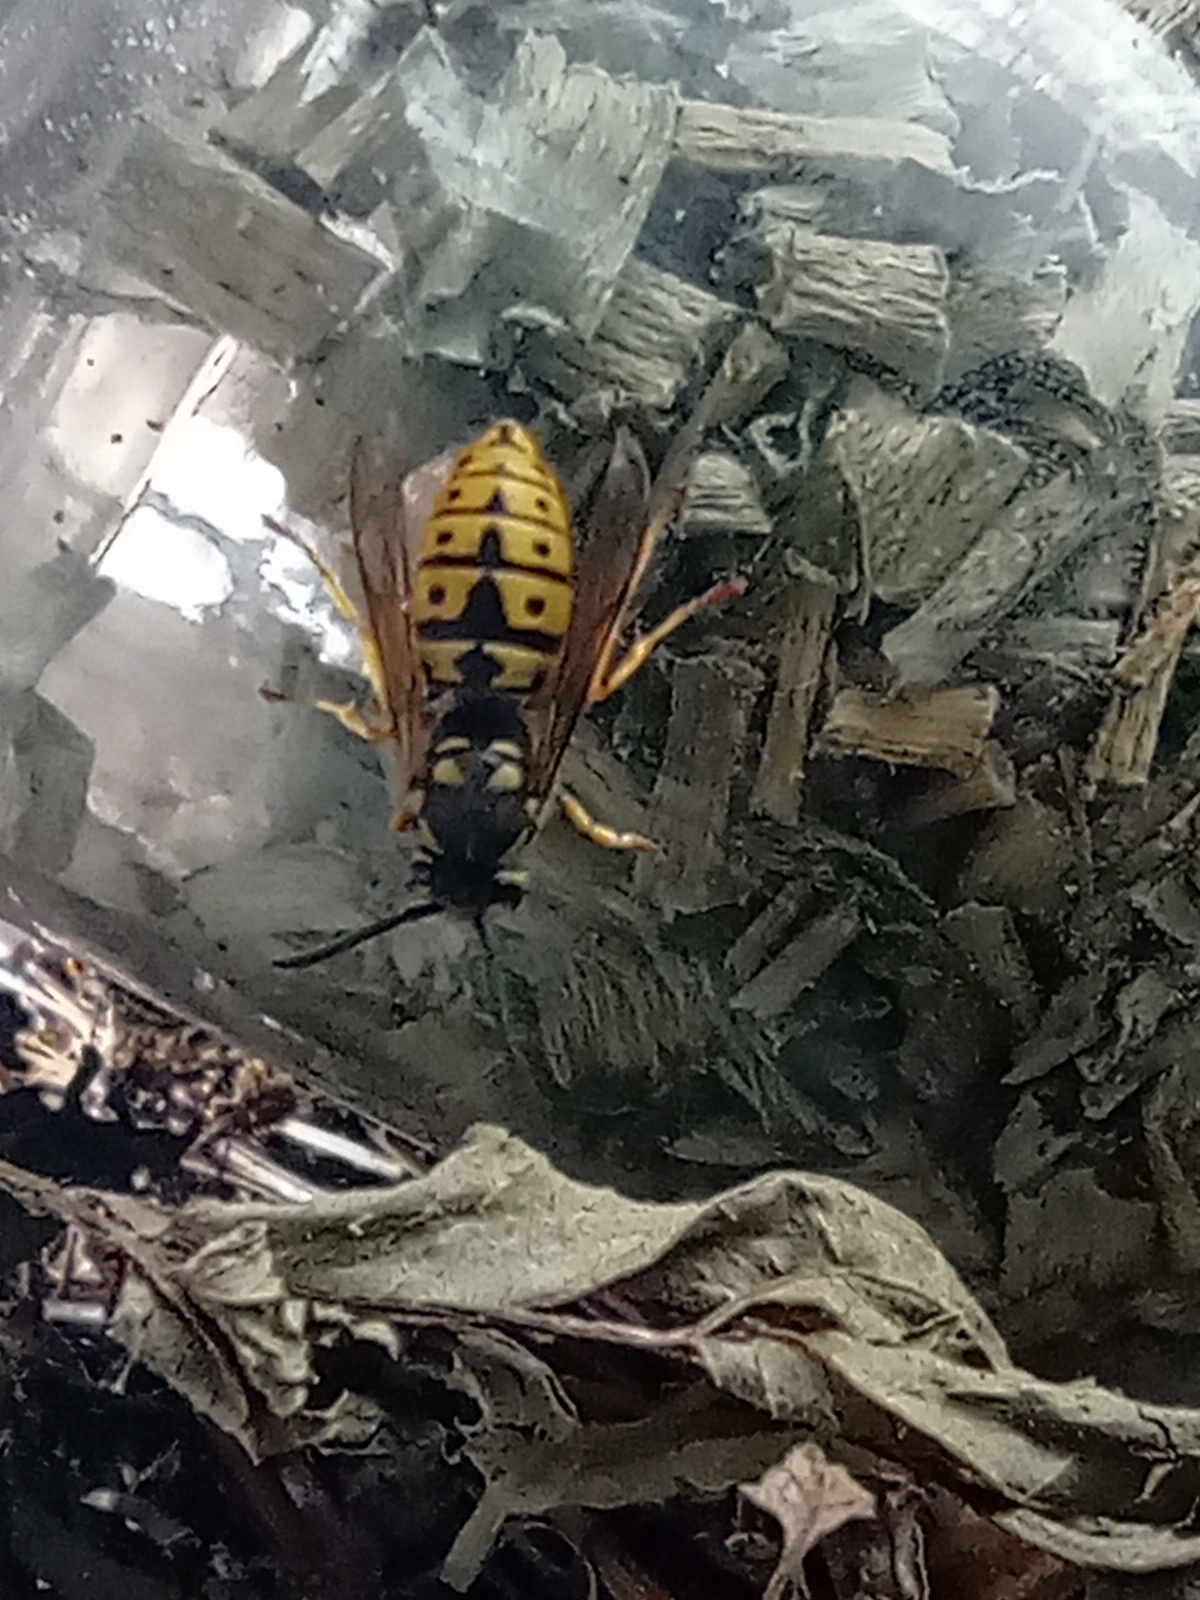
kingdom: Animalia
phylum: Arthropoda
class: Insecta
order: Hymenoptera
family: Vespidae
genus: Vespula
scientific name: Vespula germanica
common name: German wasp
